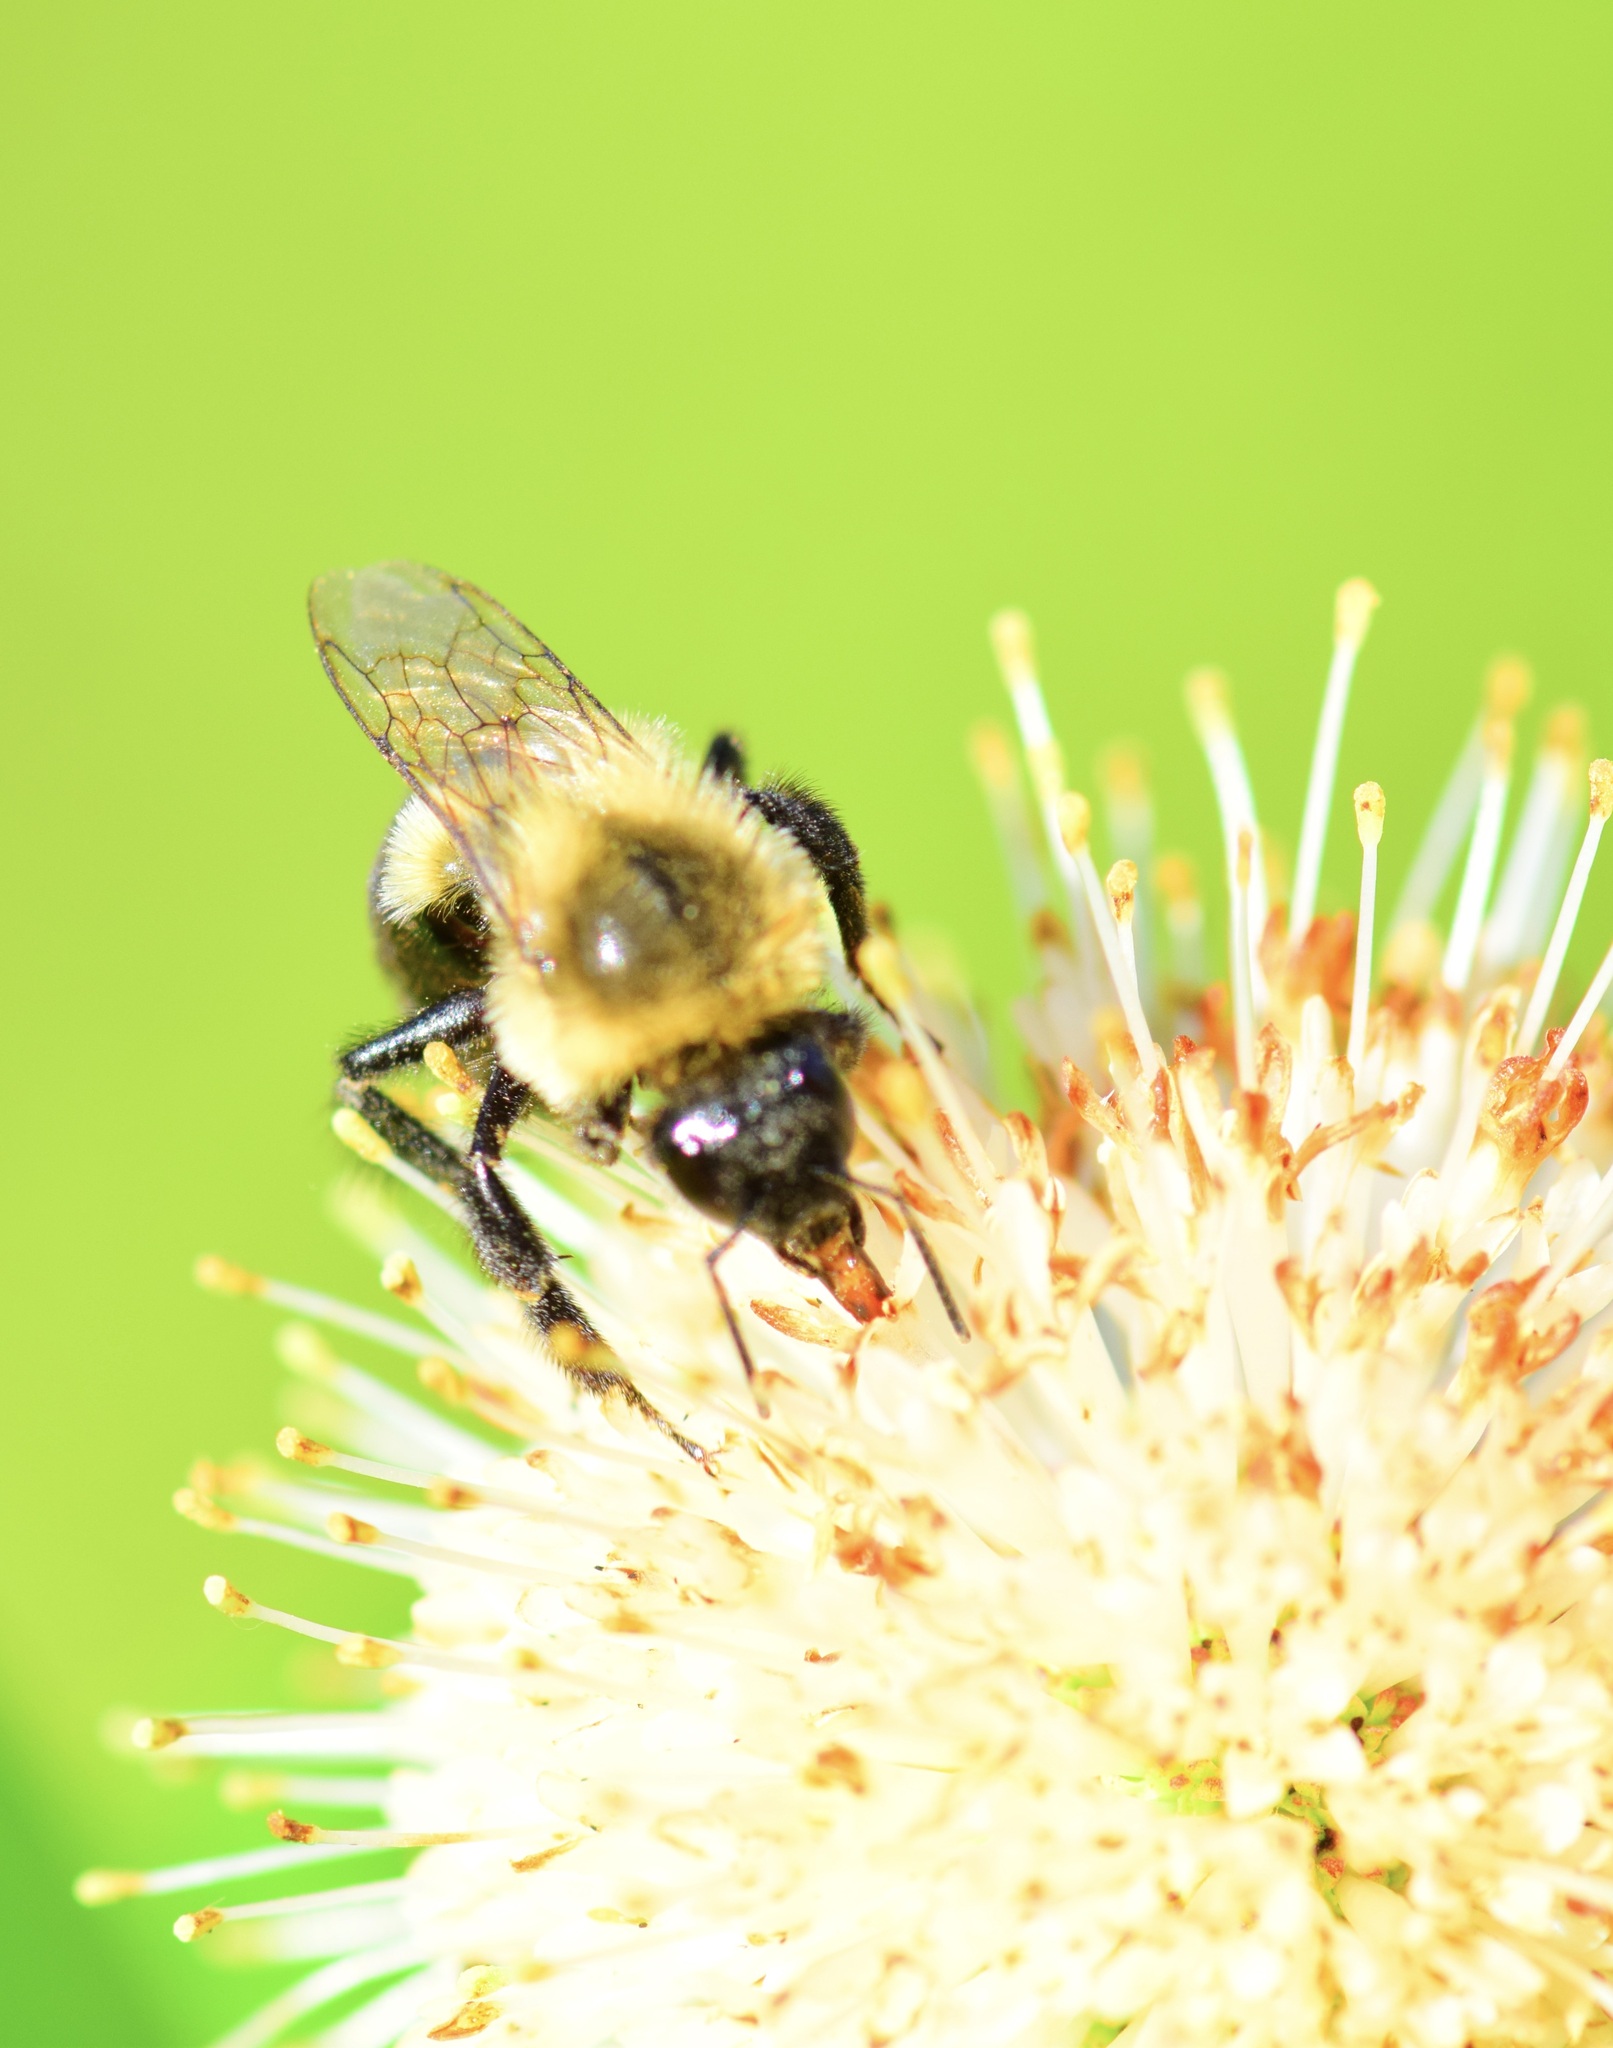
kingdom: Animalia
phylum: Arthropoda
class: Insecta
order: Hymenoptera
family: Apidae
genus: Bombus
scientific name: Bombus impatiens
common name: Common eastern bumble bee
